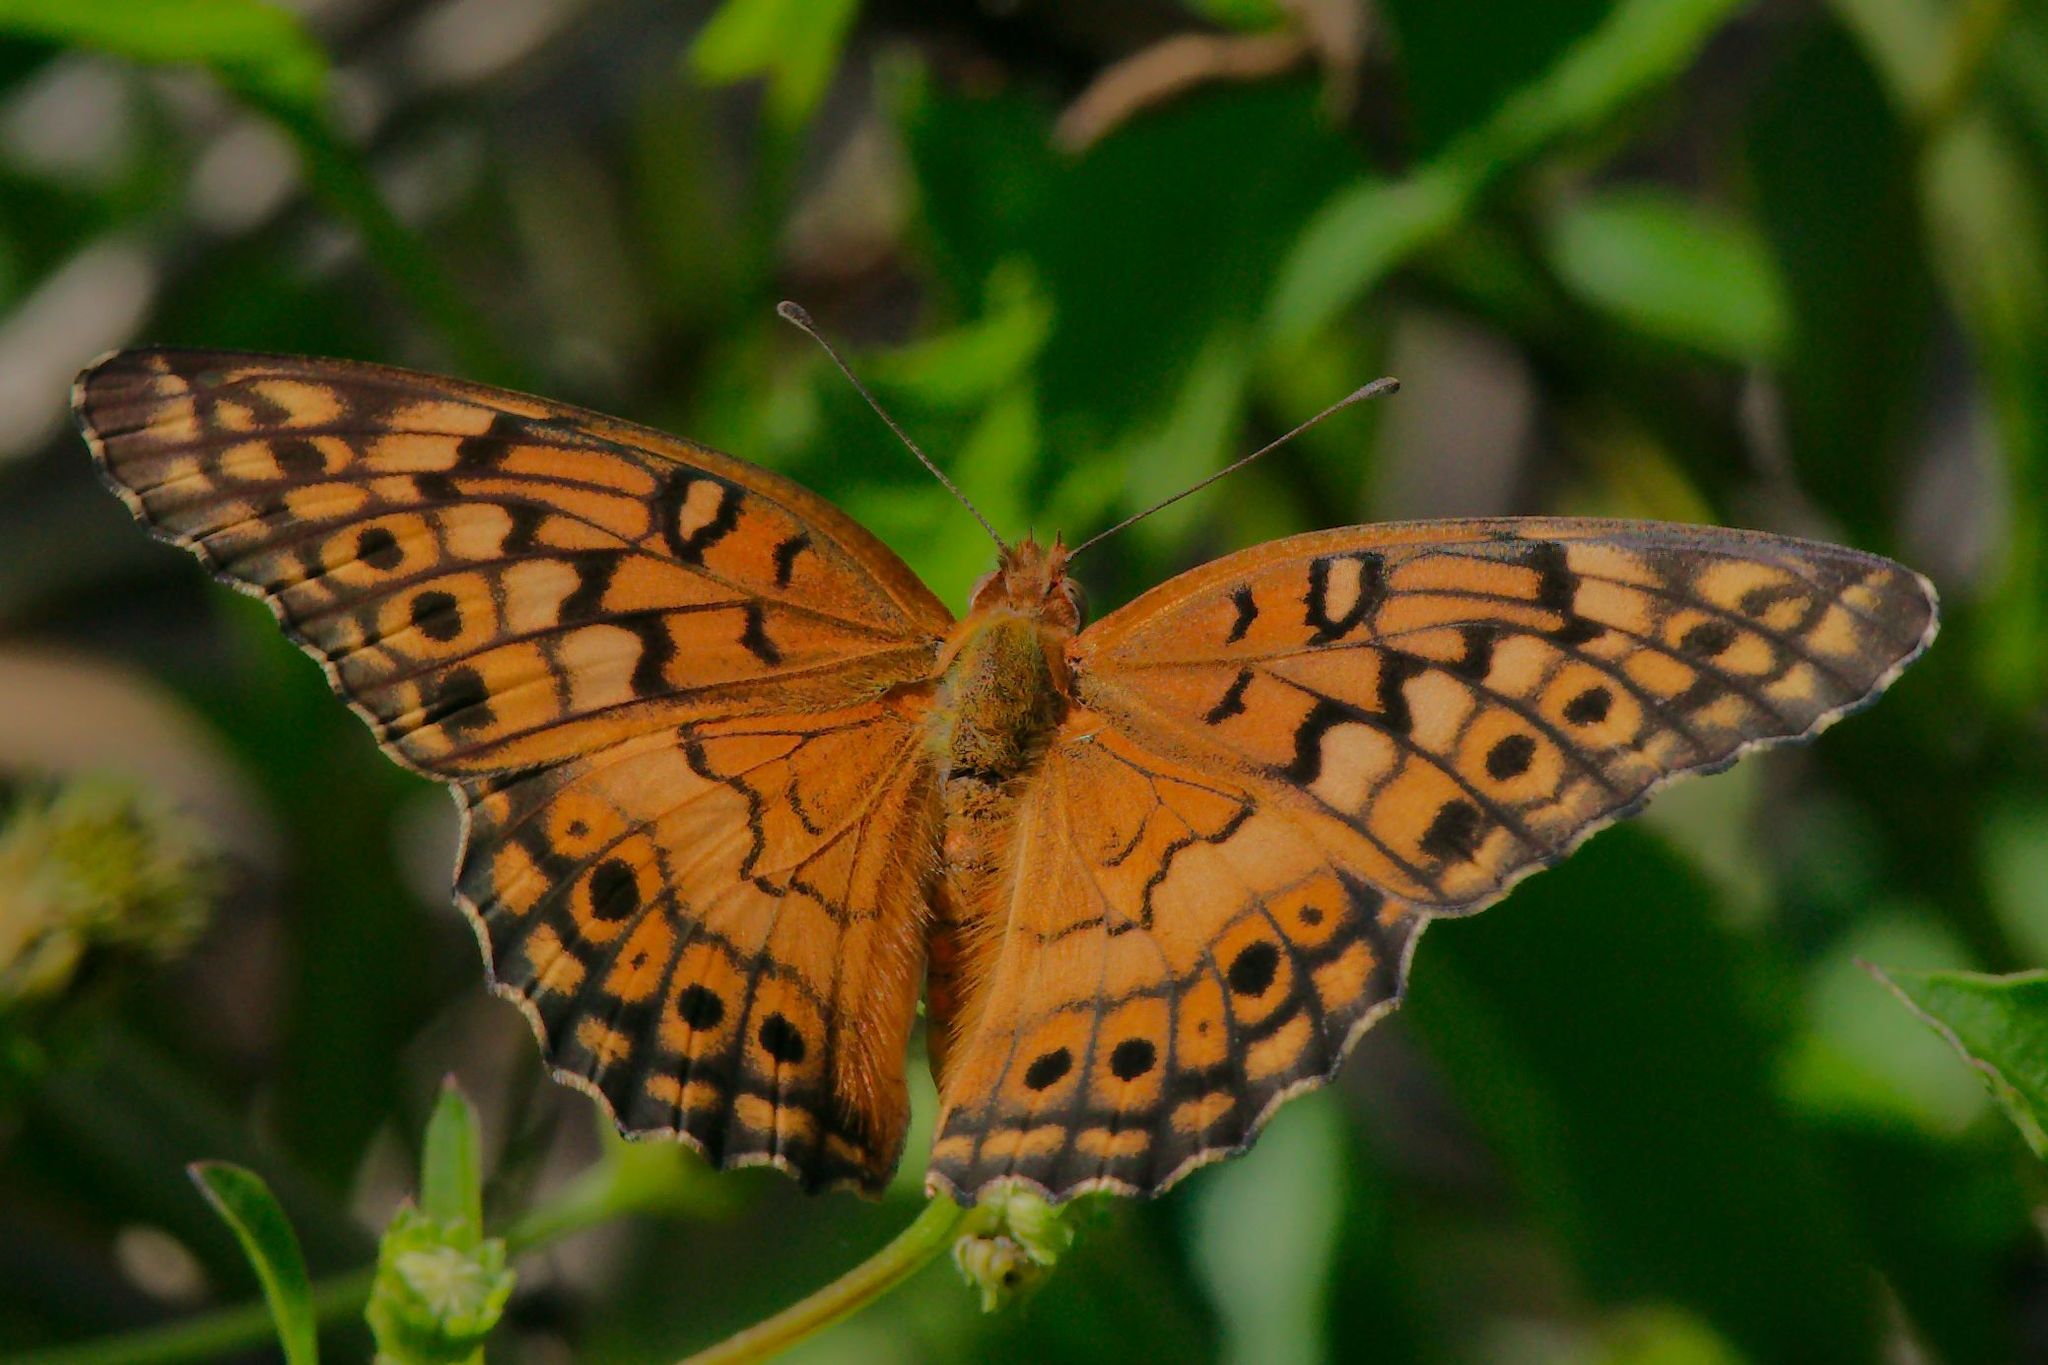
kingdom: Animalia
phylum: Arthropoda
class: Insecta
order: Lepidoptera
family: Nymphalidae
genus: Euptoieta
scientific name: Euptoieta claudia
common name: Variegated fritillary
